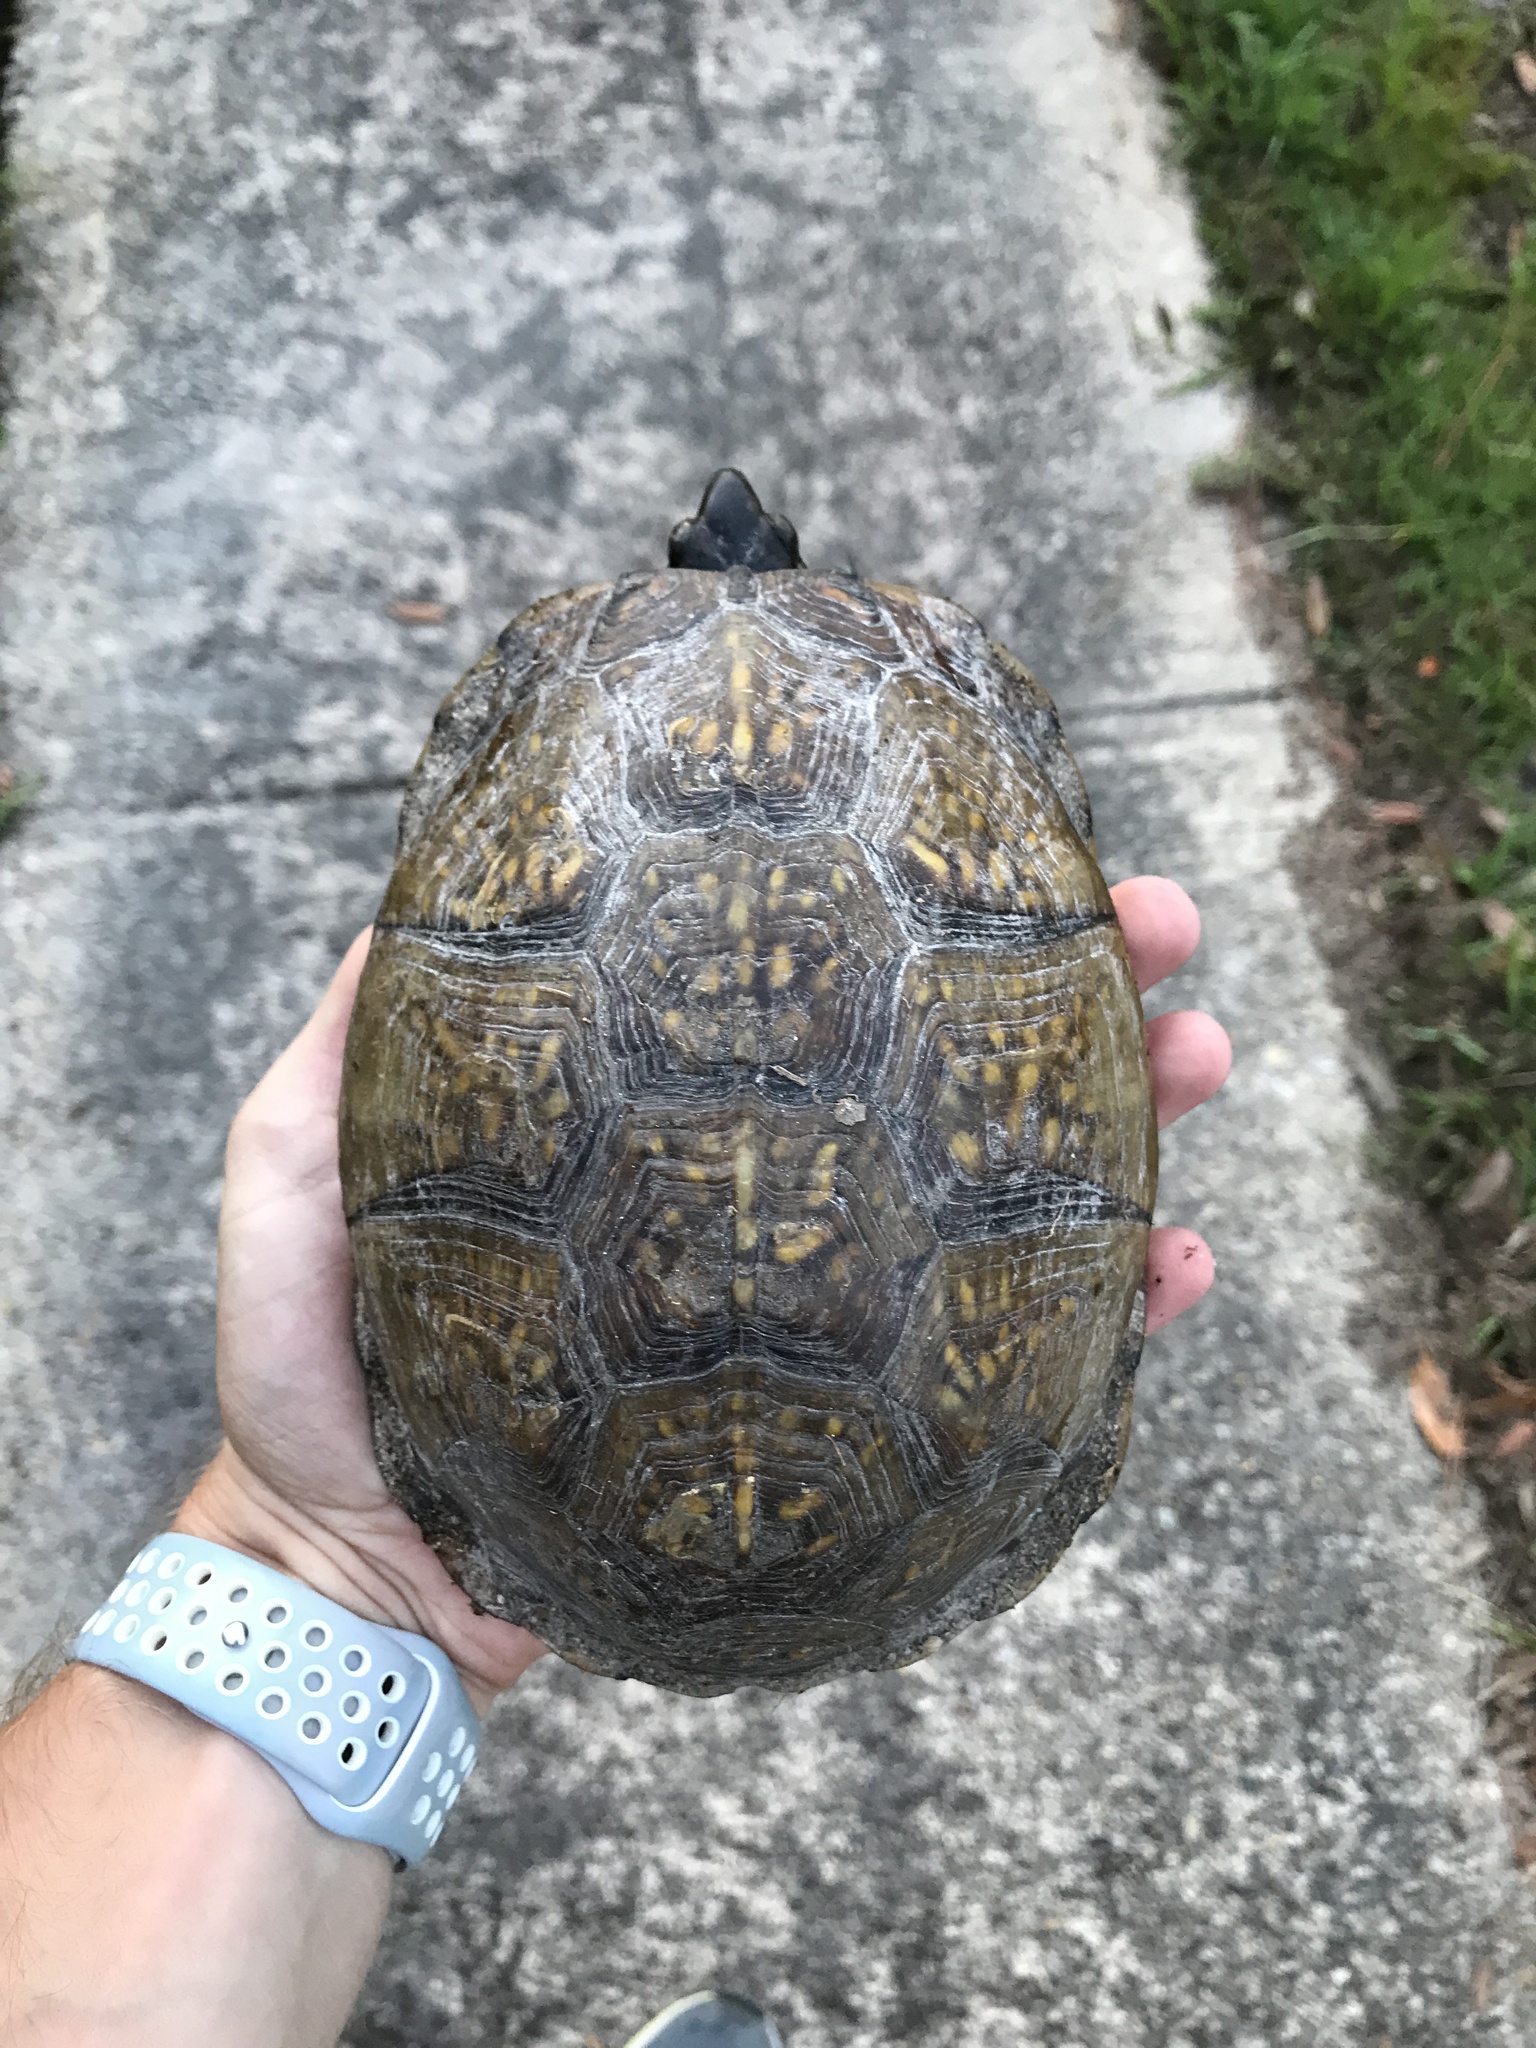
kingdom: Animalia
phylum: Chordata
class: Testudines
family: Emydidae
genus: Terrapene
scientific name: Terrapene carolina
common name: Common box turtle
